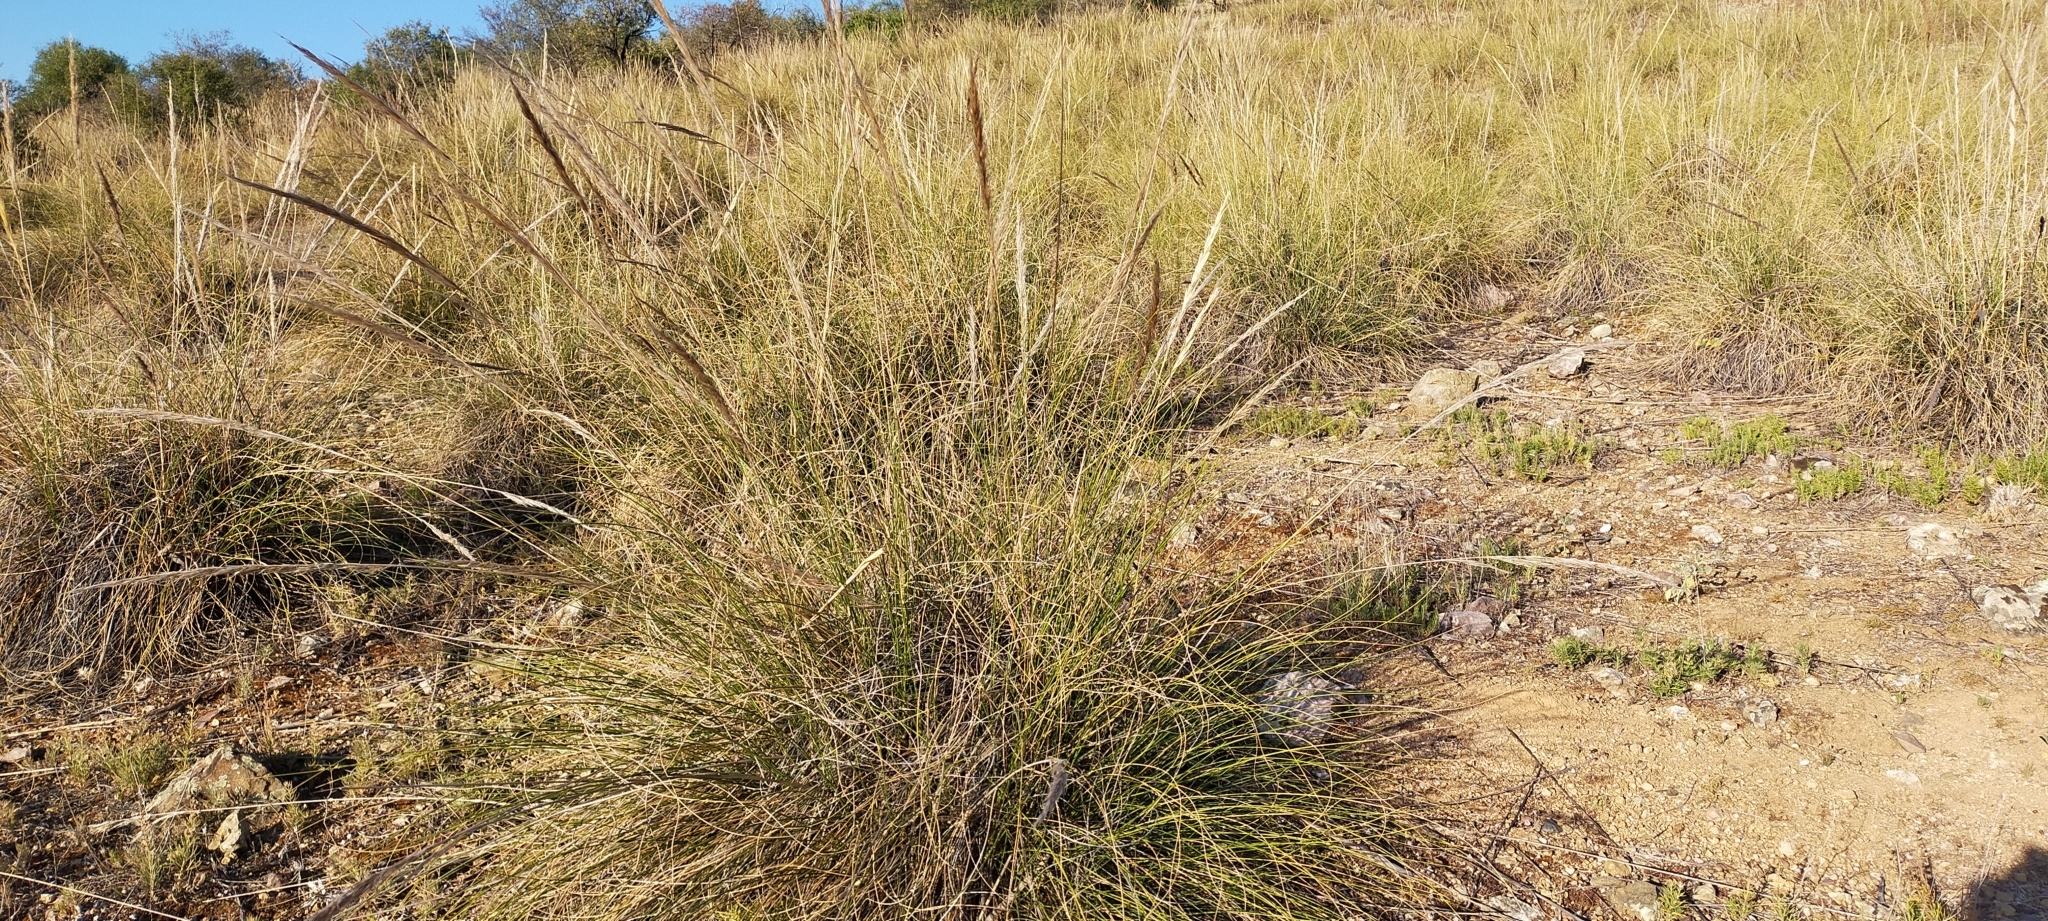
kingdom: Plantae
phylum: Tracheophyta
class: Liliopsida
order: Poales
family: Poaceae
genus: Macrochloa
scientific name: Macrochloa tenacissima
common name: Alfa grass
